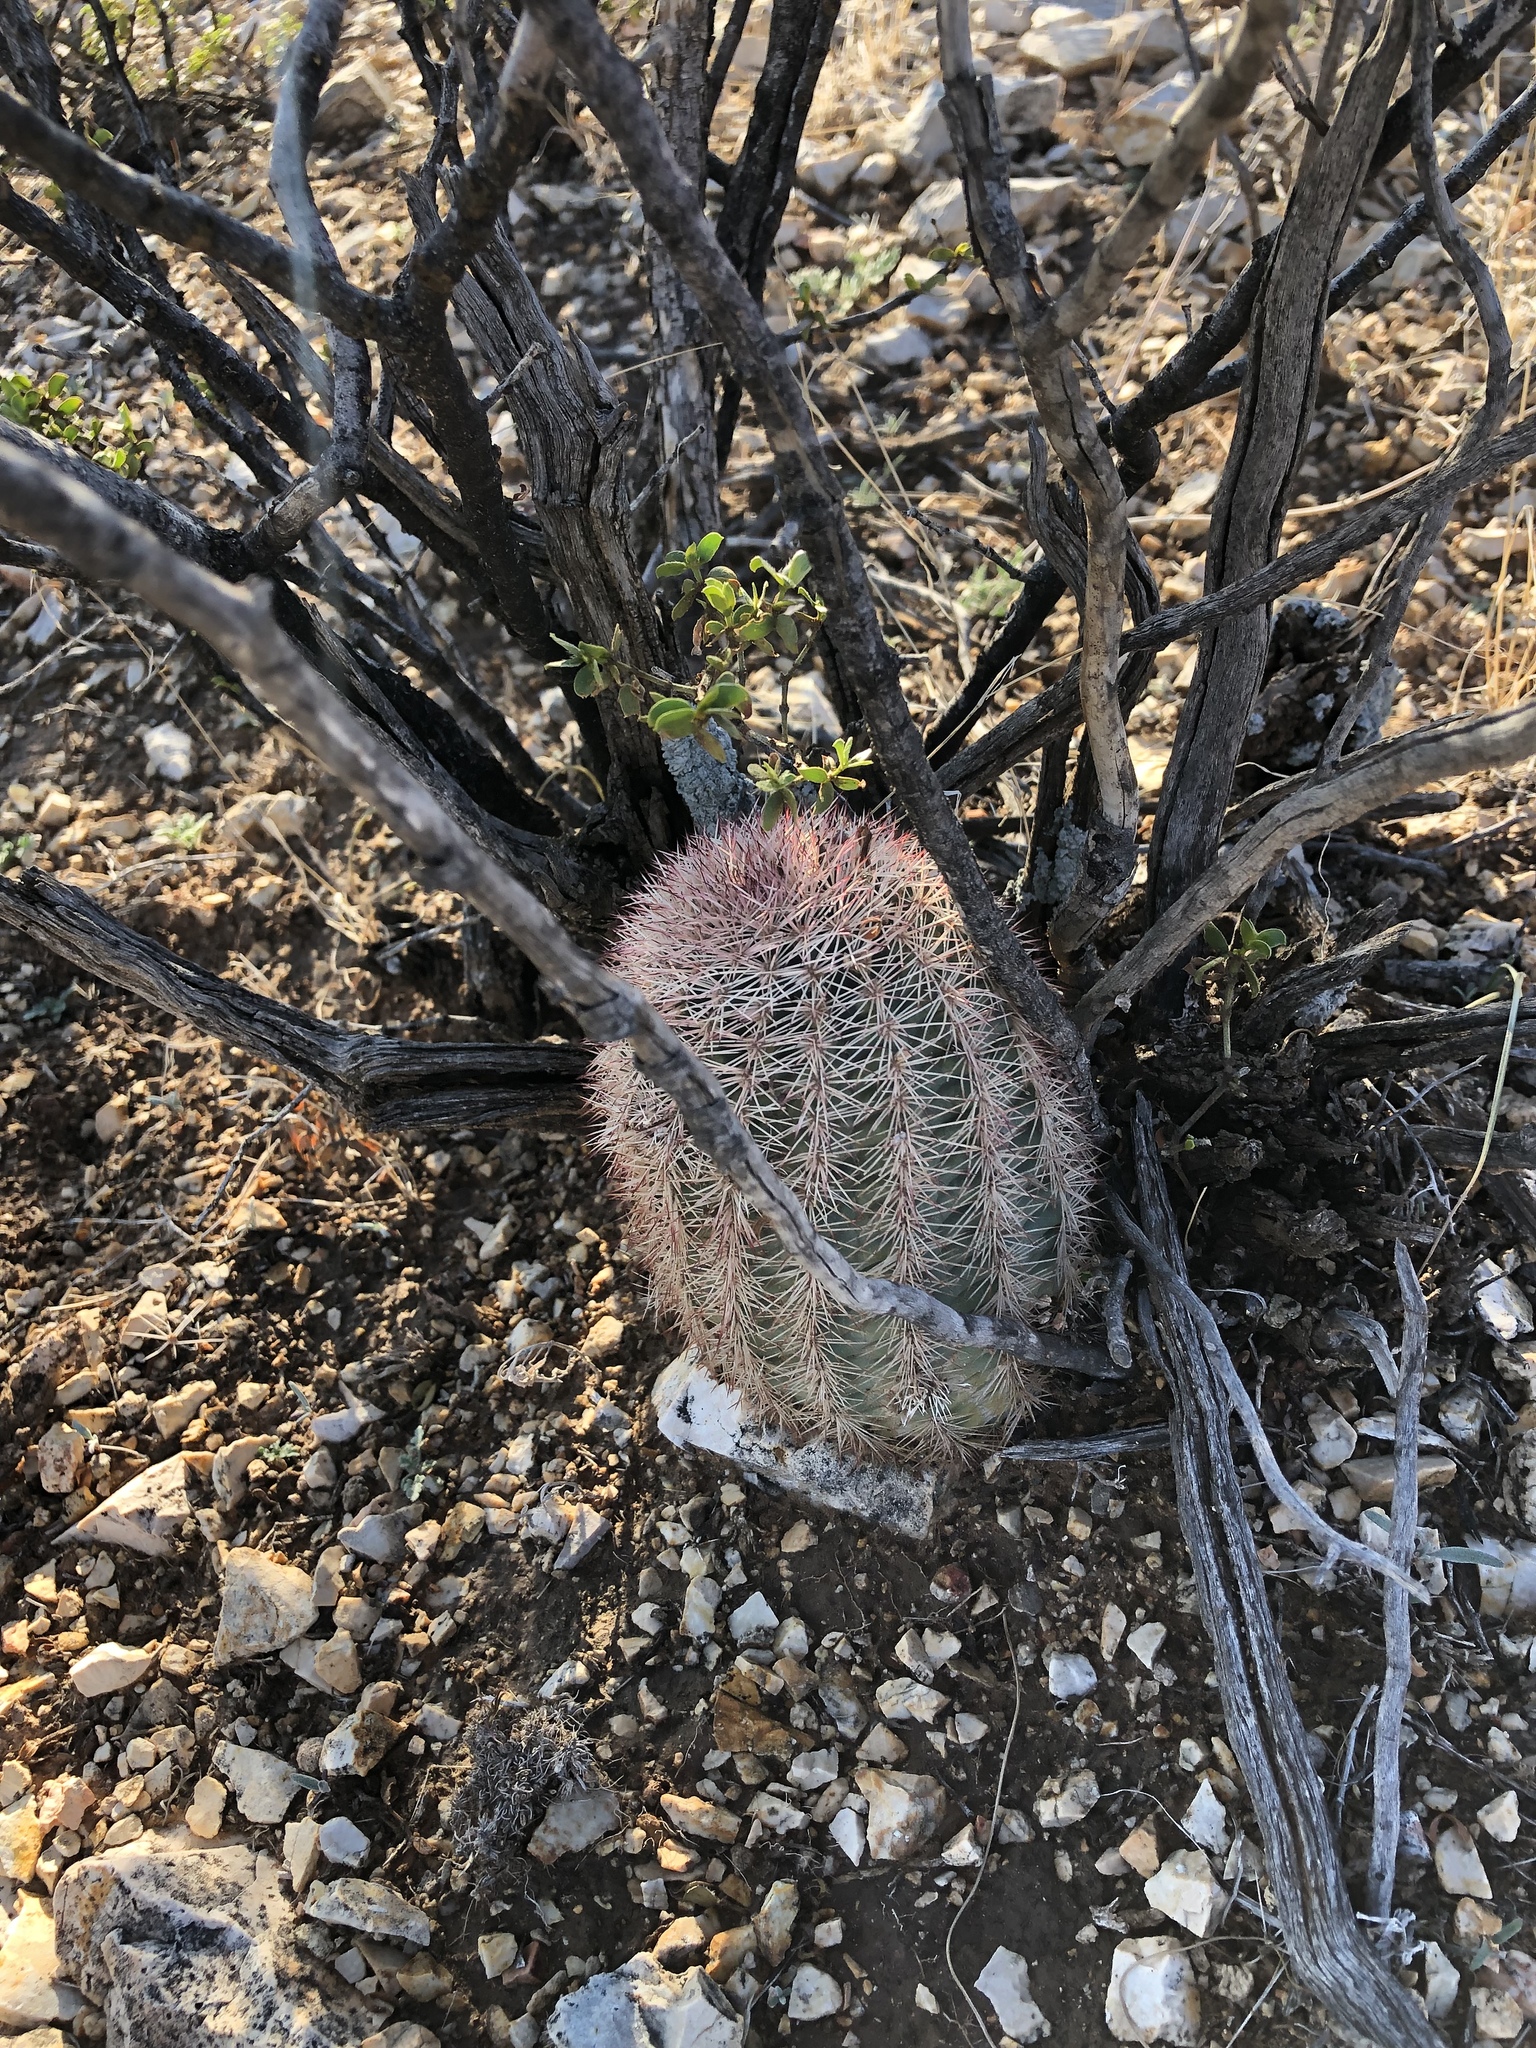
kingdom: Plantae
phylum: Tracheophyta
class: Magnoliopsida
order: Caryophyllales
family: Cactaceae
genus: Echinocereus
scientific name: Echinocereus dasyacanthus
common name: Spiny hedgehog cactus
